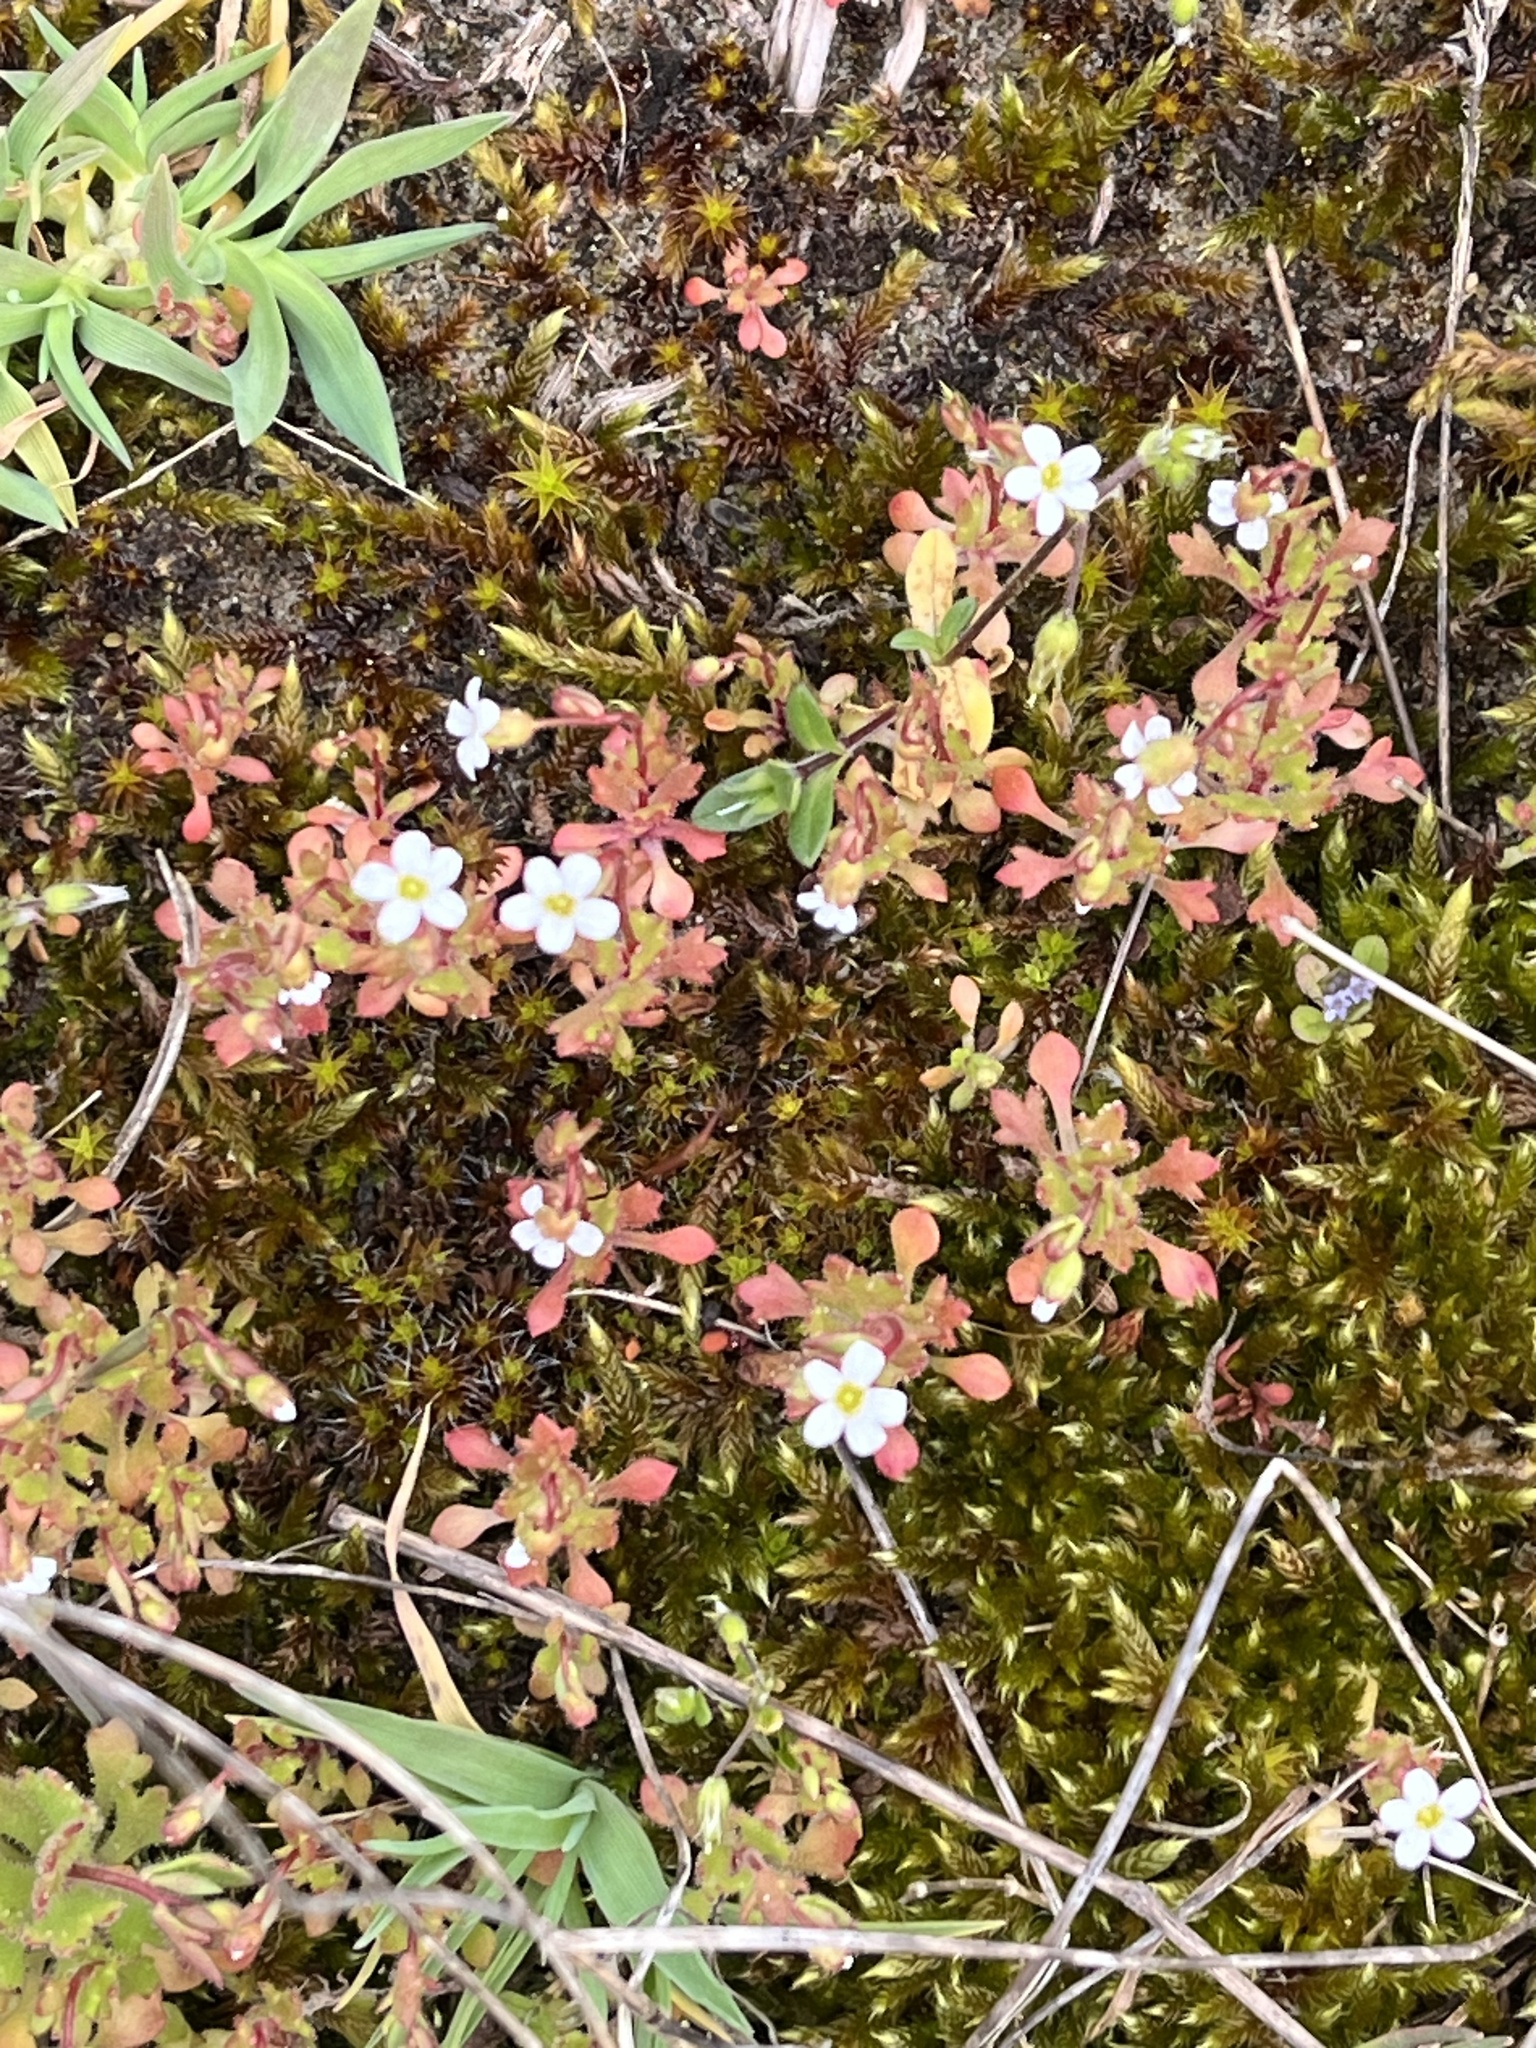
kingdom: Plantae
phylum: Tracheophyta
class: Magnoliopsida
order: Saxifragales
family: Saxifragaceae
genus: Saxifraga
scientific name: Saxifraga tridactylites
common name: Rue-leaved saxifrage
